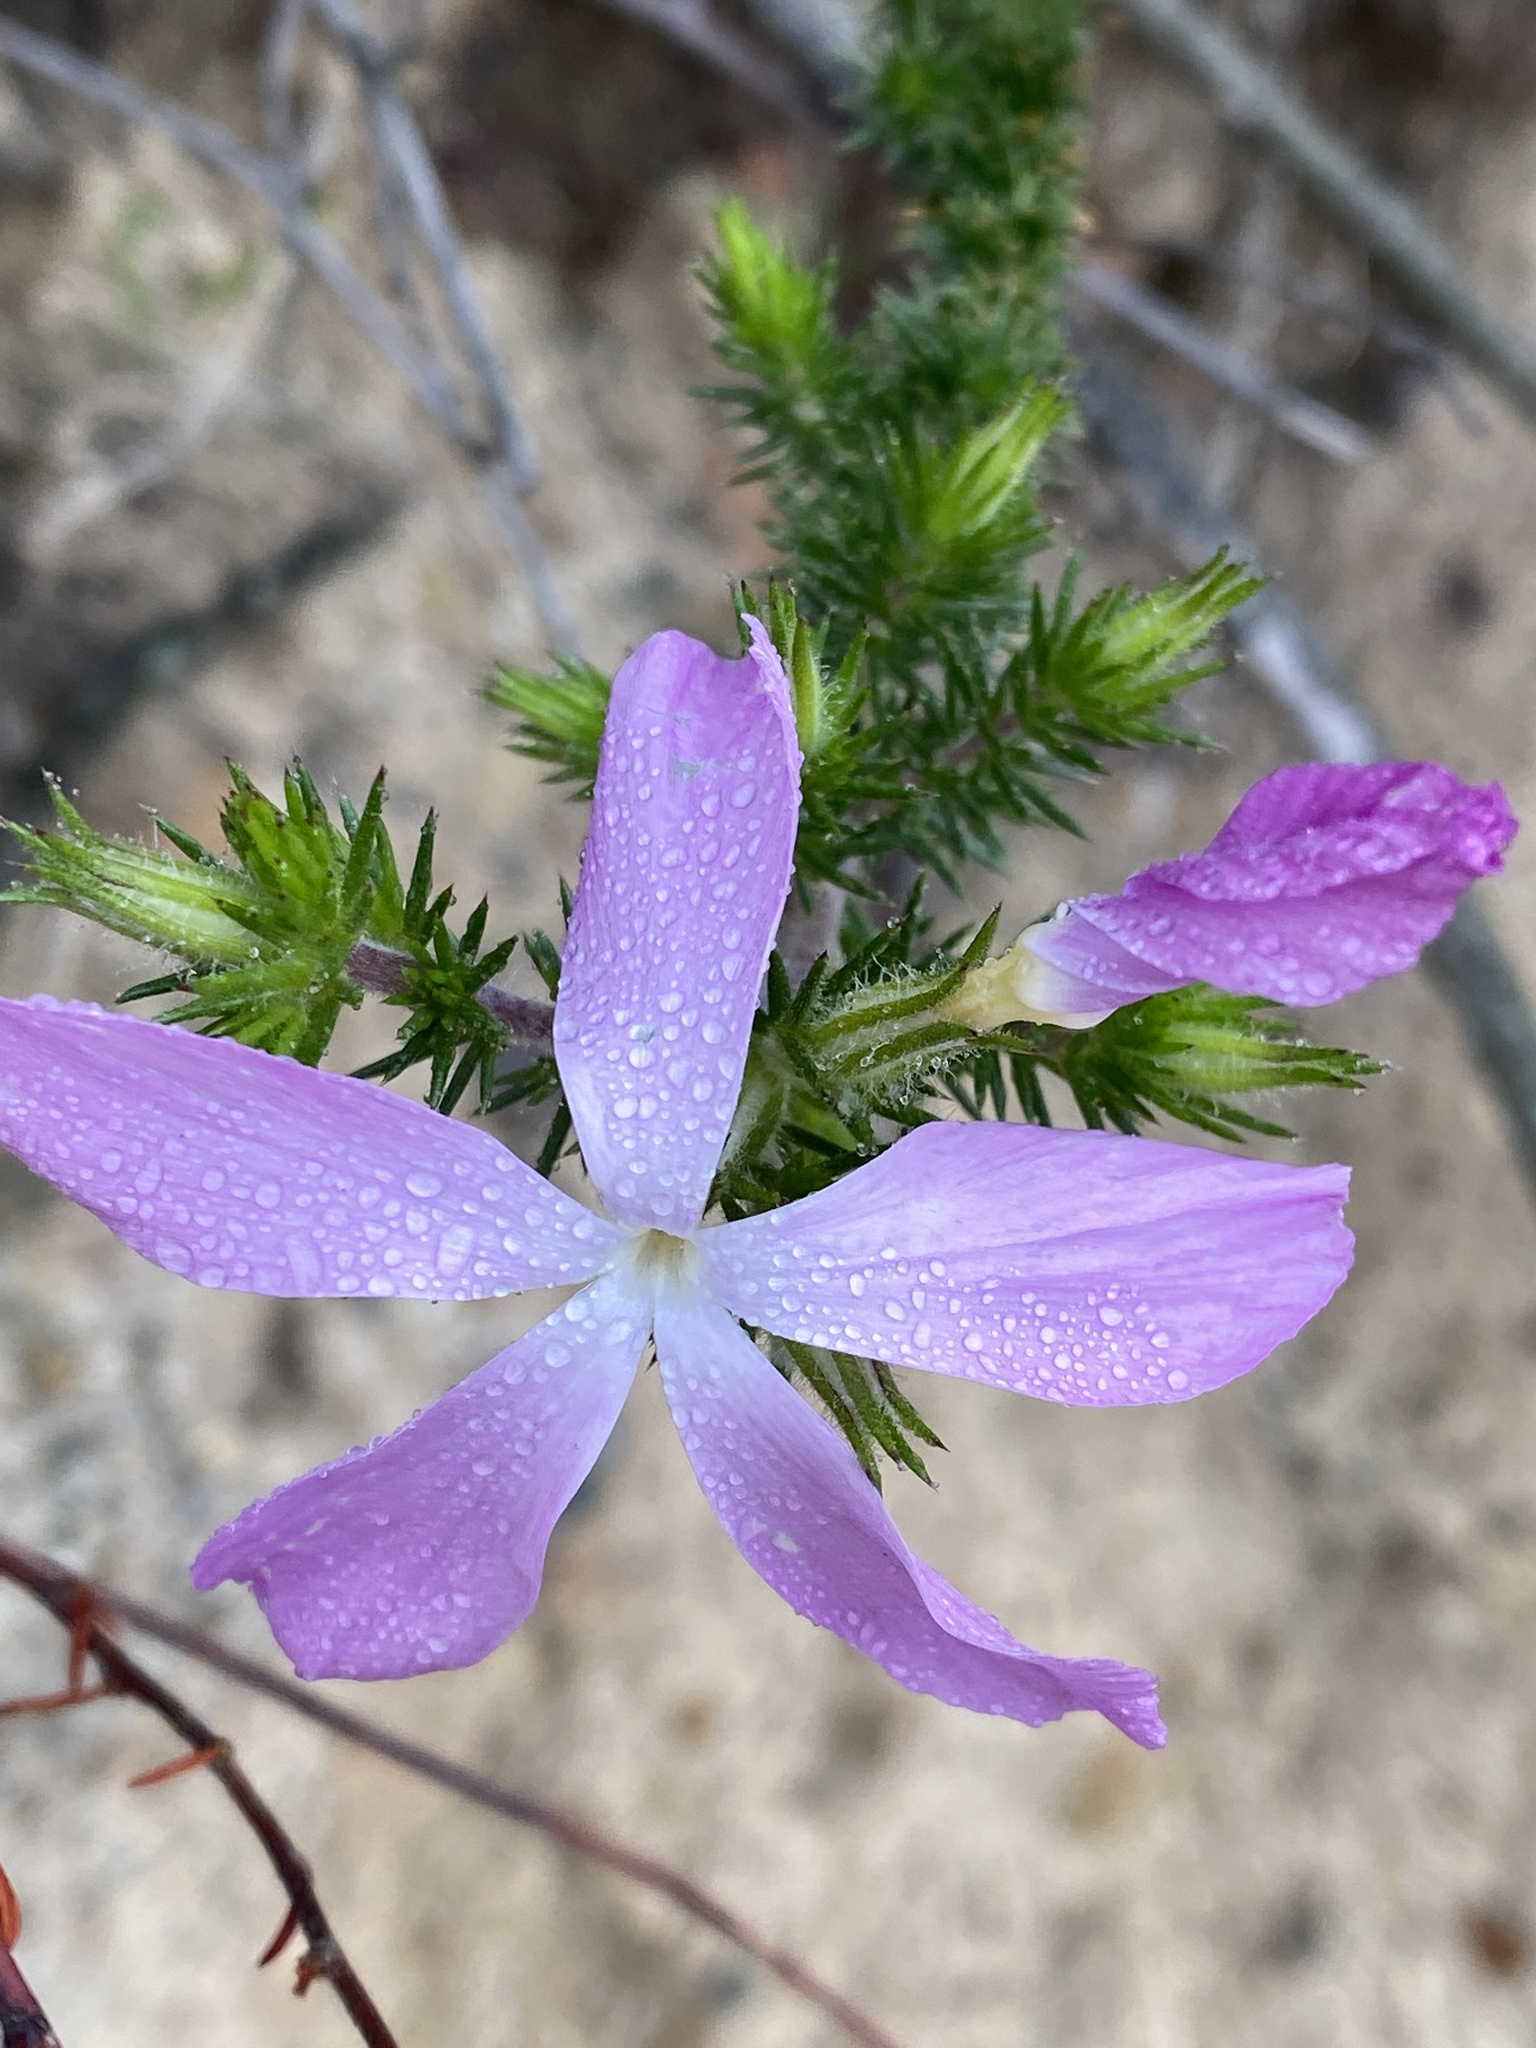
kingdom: Plantae
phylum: Tracheophyta
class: Magnoliopsida
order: Ericales
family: Polemoniaceae
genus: Linanthus
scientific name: Linanthus californicus
